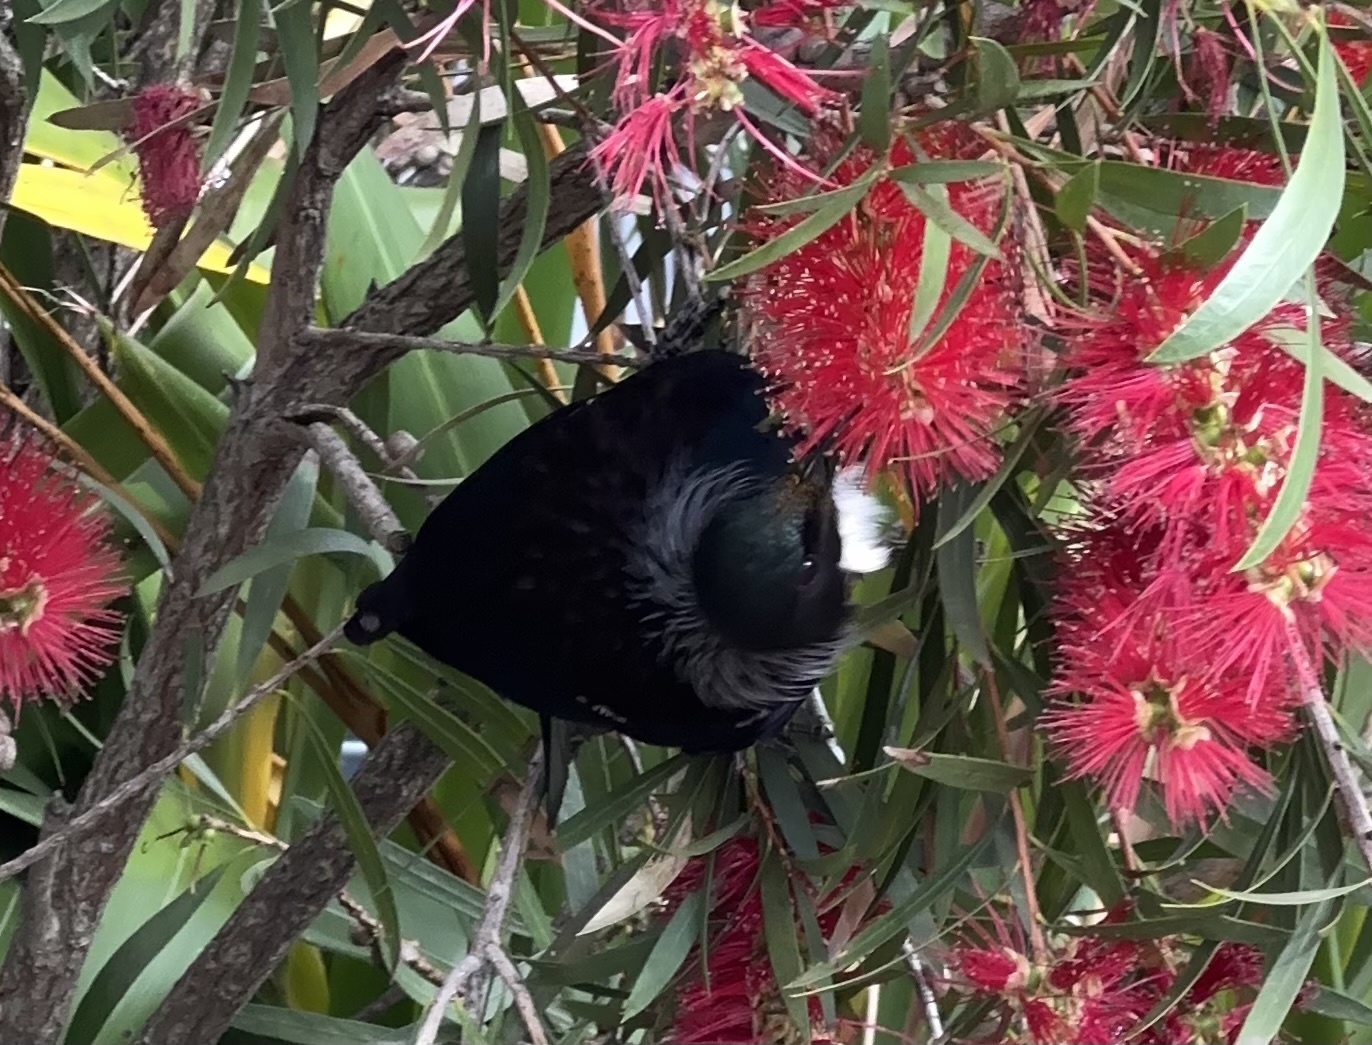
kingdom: Animalia
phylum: Chordata
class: Aves
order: Passeriformes
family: Meliphagidae
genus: Prosthemadera
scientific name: Prosthemadera novaeseelandiae
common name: Tui
